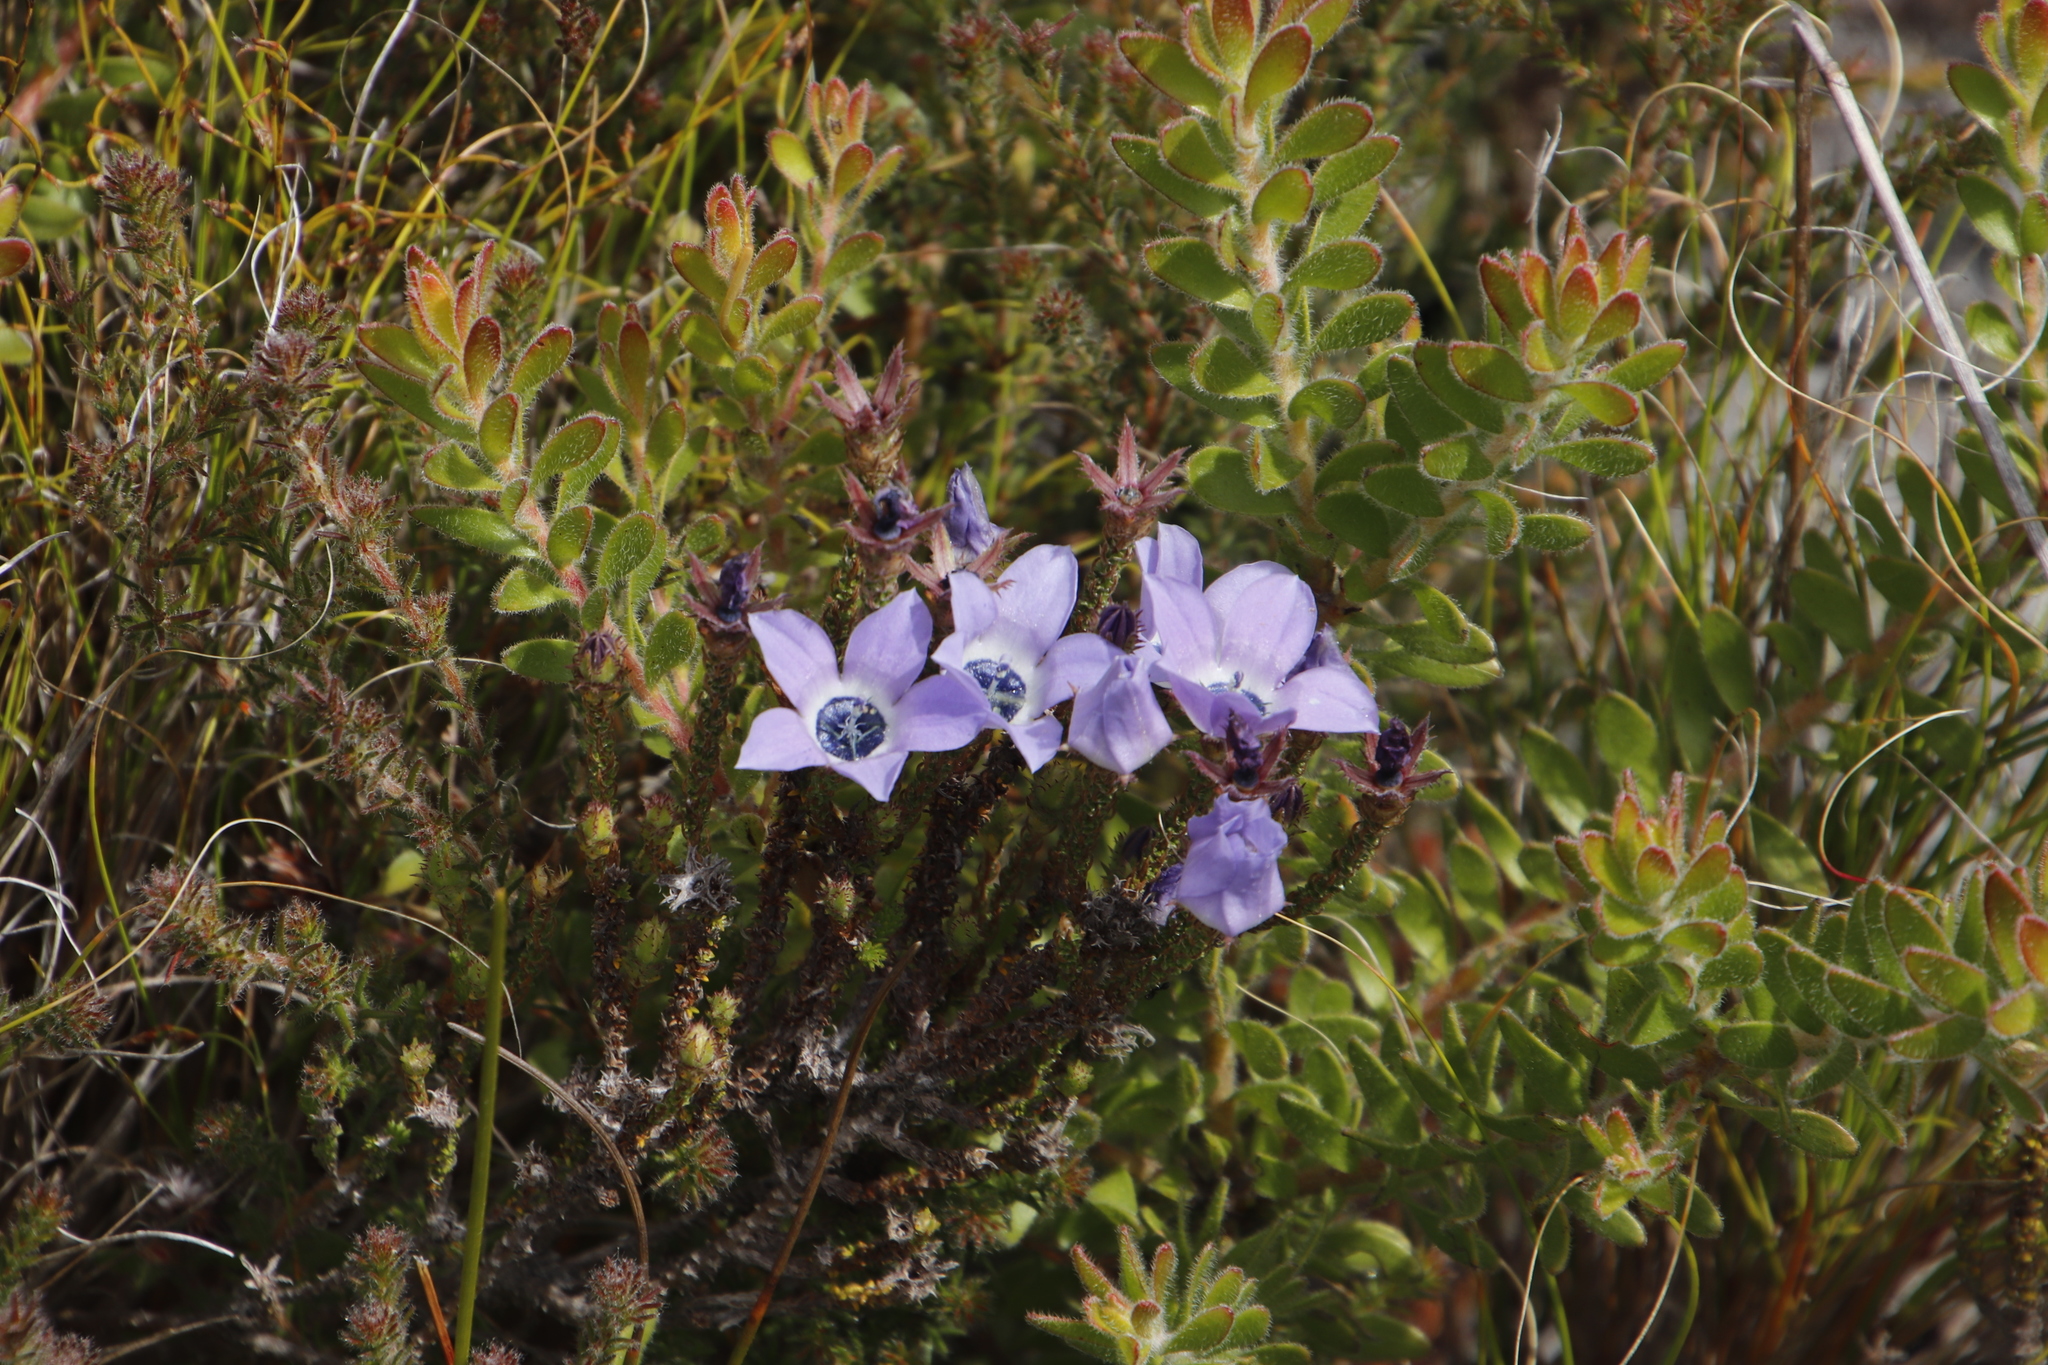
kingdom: Plantae
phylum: Tracheophyta
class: Magnoliopsida
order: Asterales
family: Campanulaceae
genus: Roella
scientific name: Roella triflora
